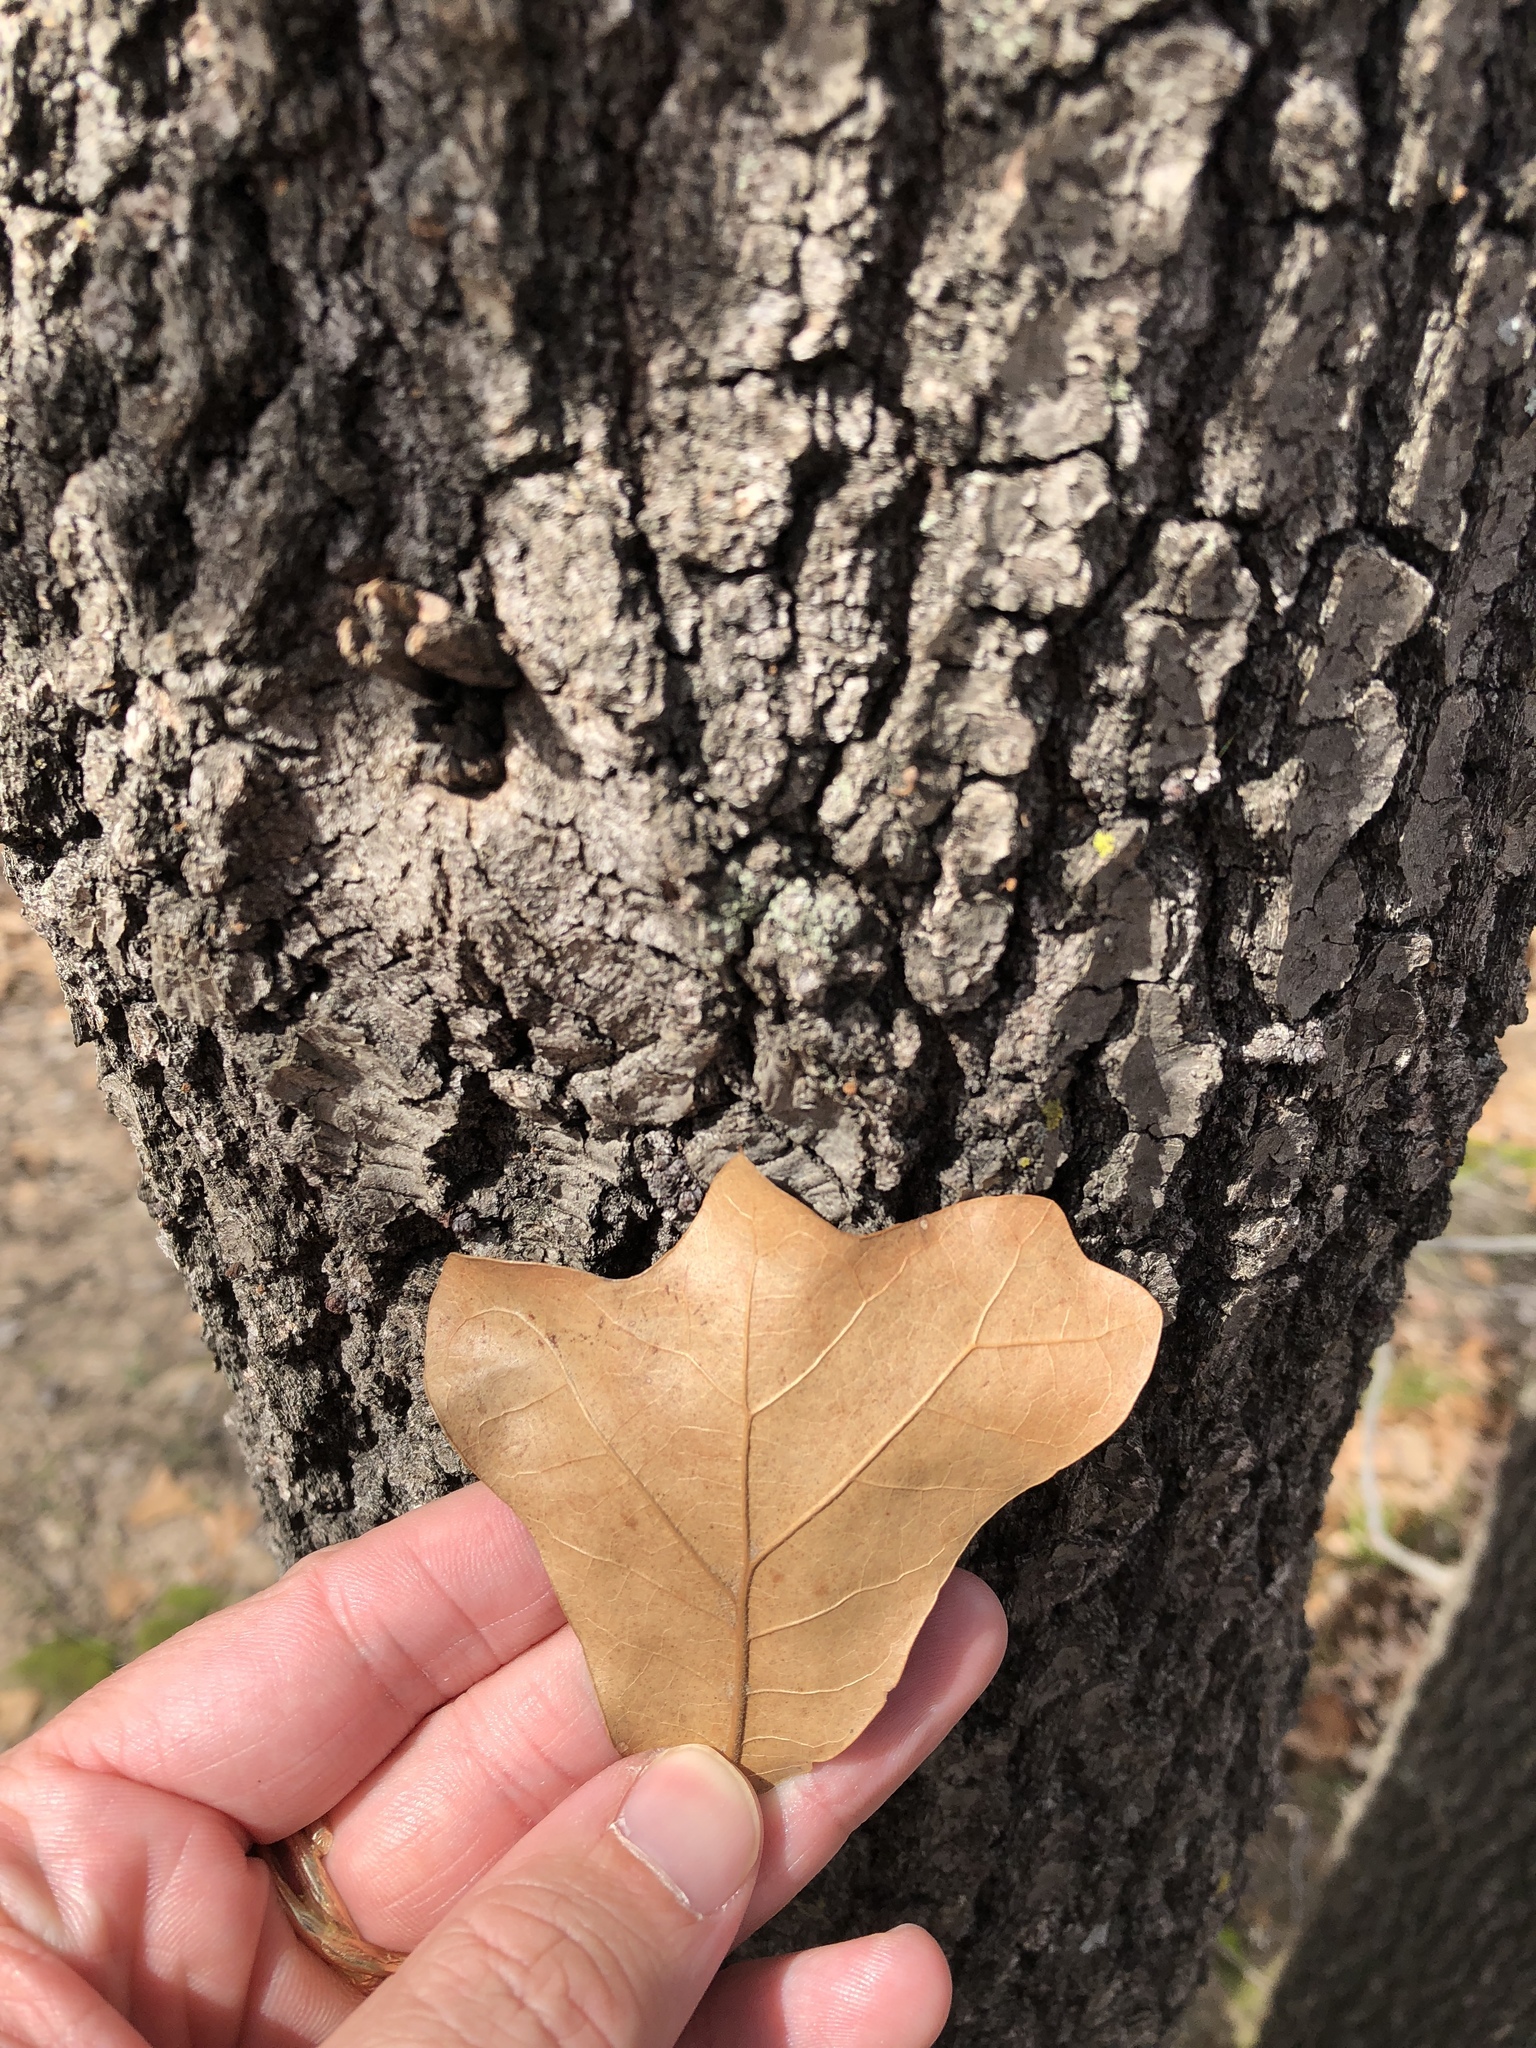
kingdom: Plantae
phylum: Tracheophyta
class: Magnoliopsida
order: Fagales
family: Fagaceae
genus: Quercus
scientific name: Quercus marilandica
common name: Blackjack oak
